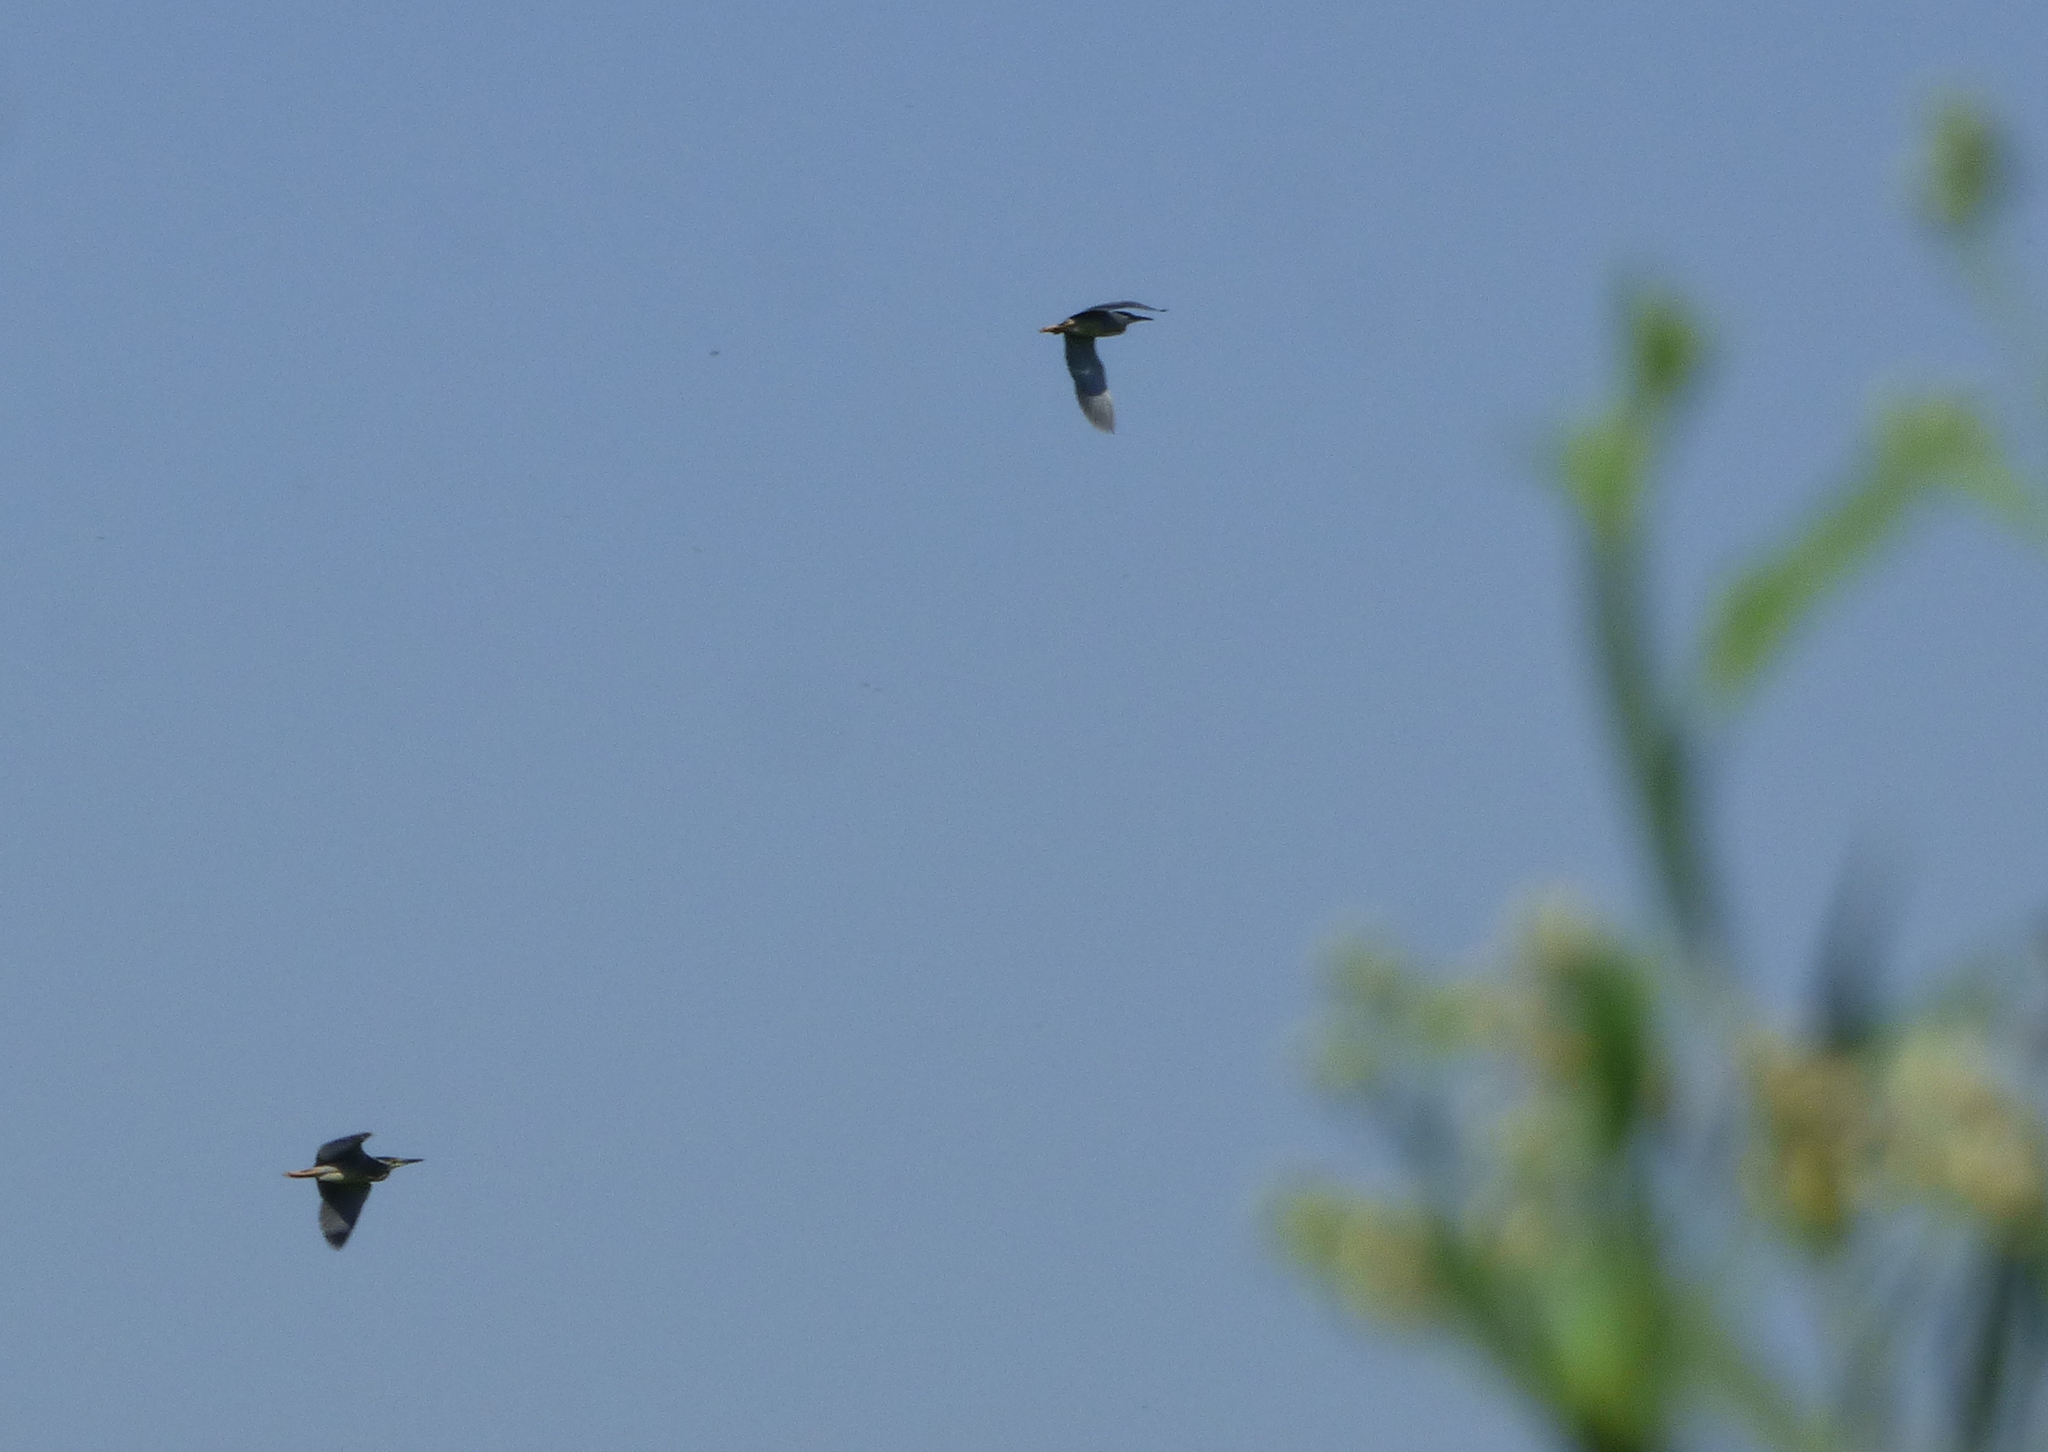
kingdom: Animalia
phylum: Chordata
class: Aves
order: Pelecaniformes
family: Ardeidae
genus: Butorides
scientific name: Butorides striata
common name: Striated heron
